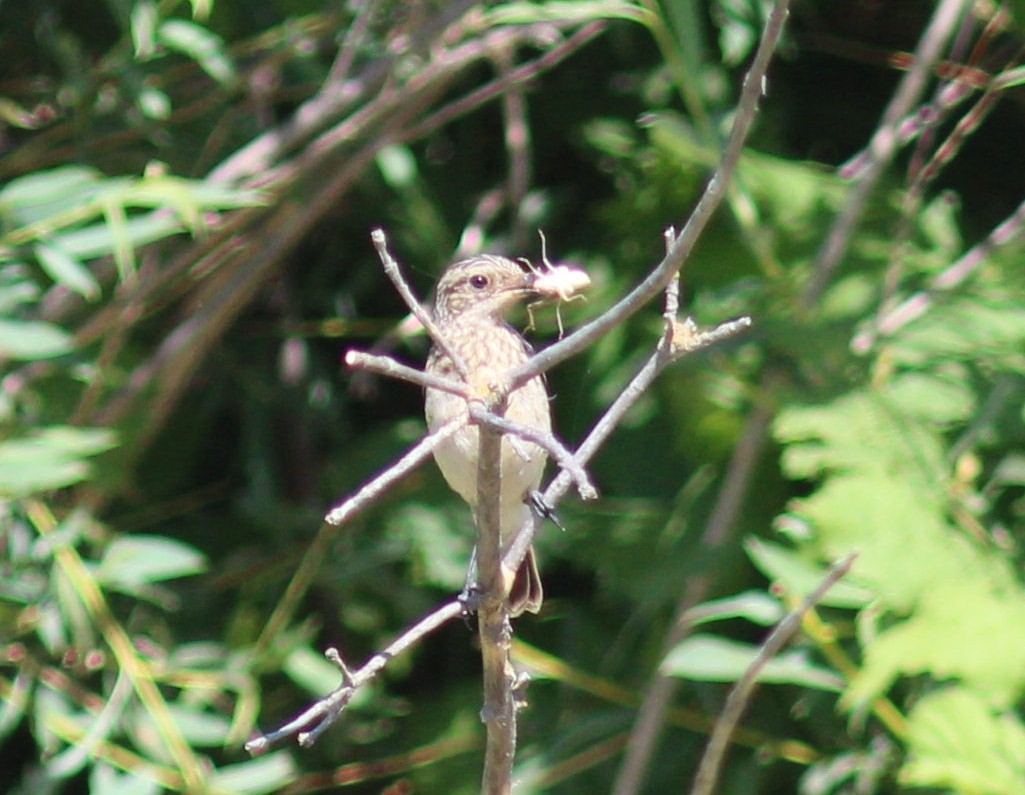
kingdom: Animalia
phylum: Chordata
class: Aves
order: Passeriformes
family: Muscicapidae
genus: Muscicapa
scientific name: Muscicapa striata
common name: Spotted flycatcher
